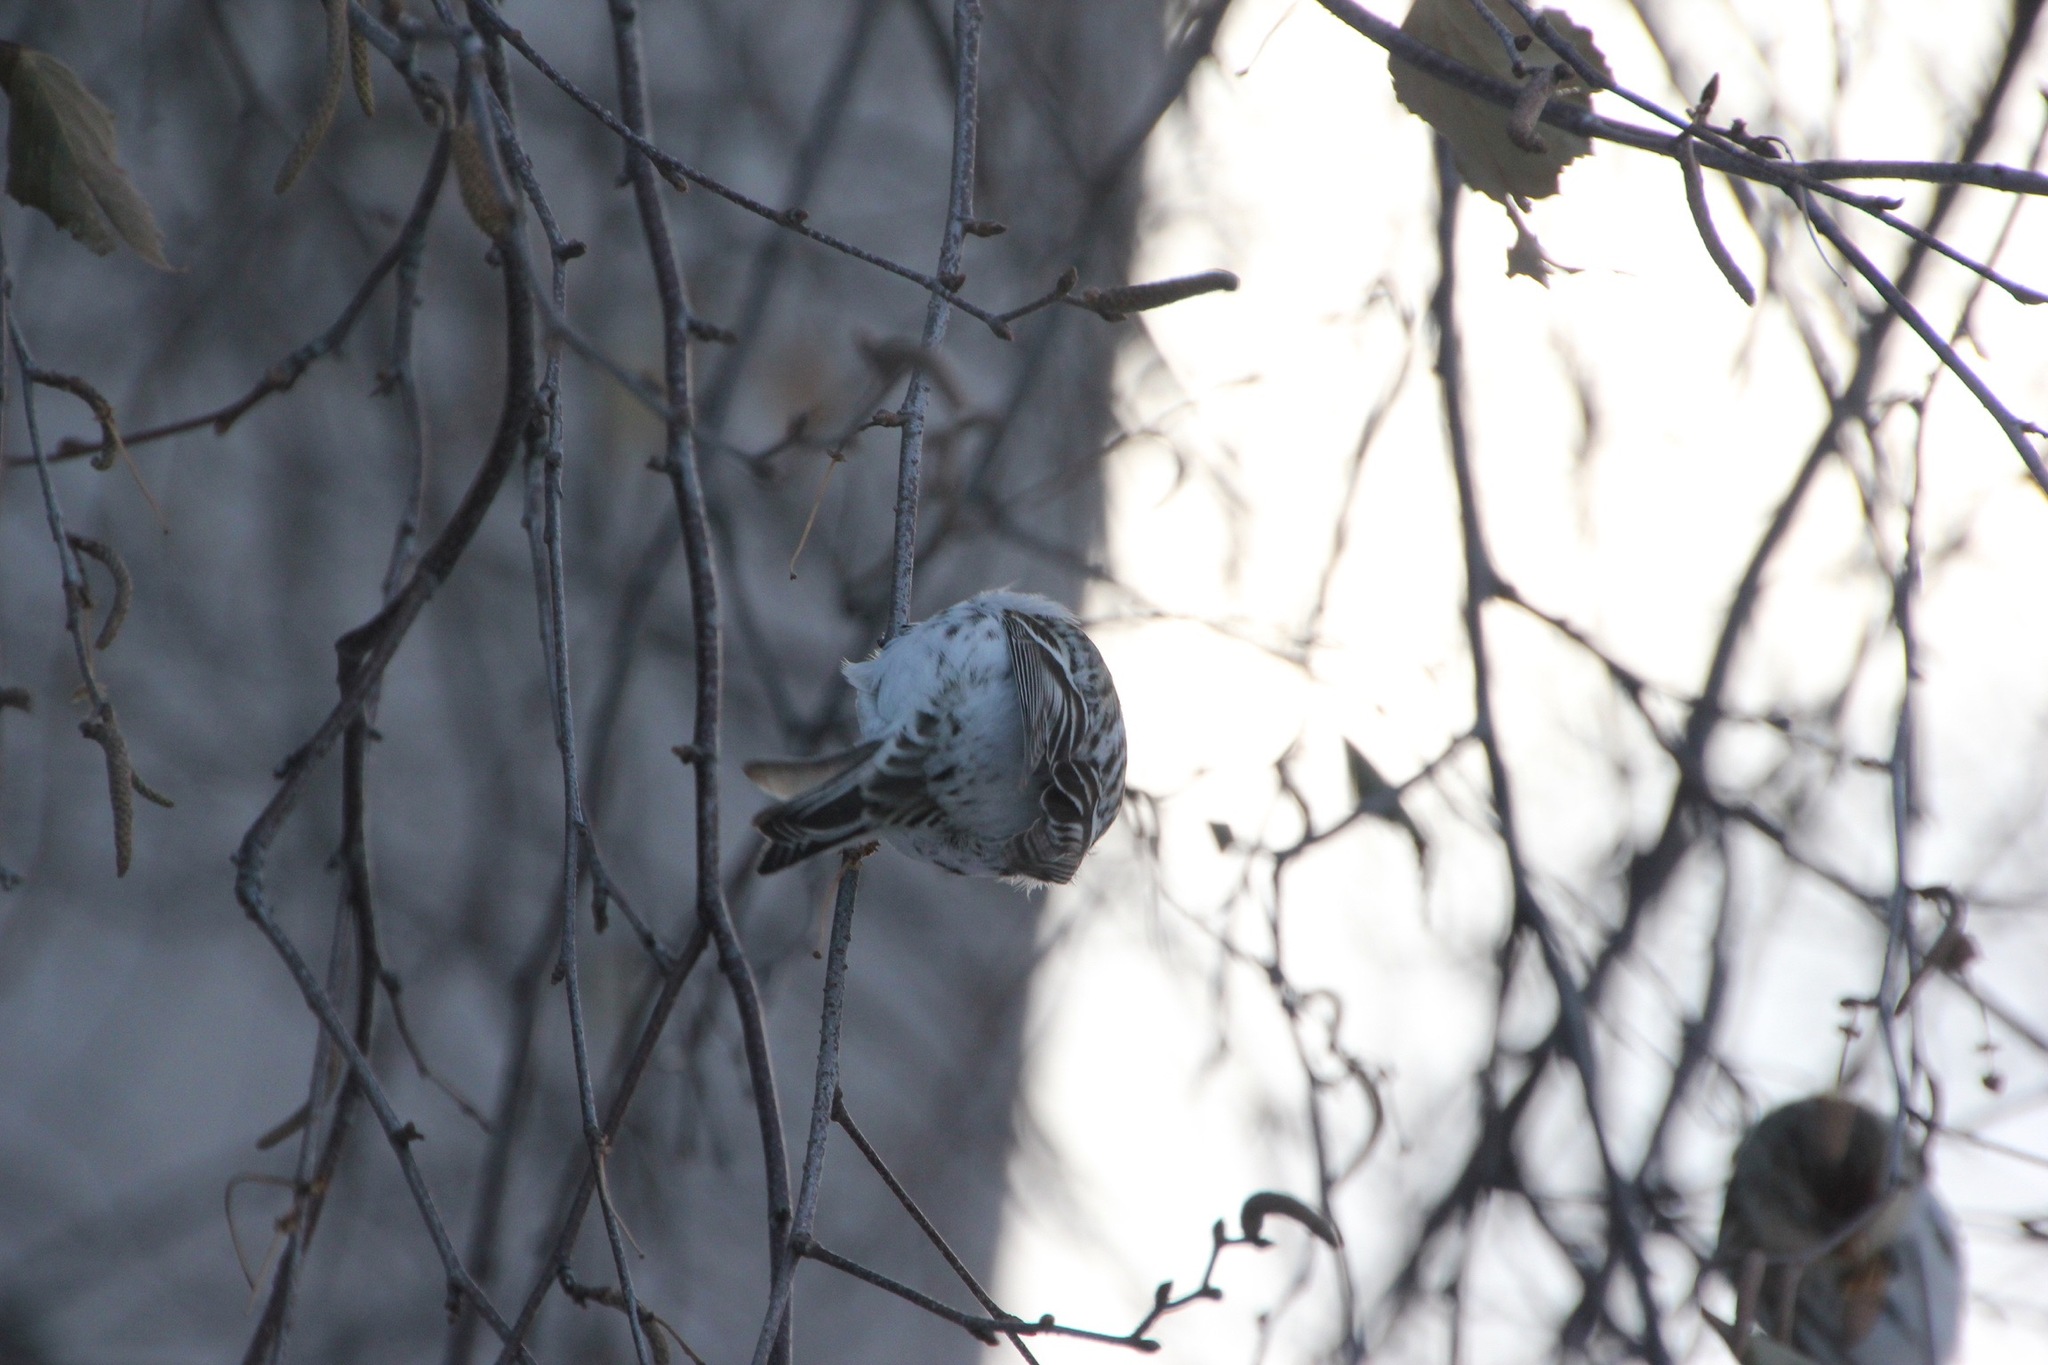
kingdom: Animalia
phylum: Chordata
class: Aves
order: Passeriformes
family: Fringillidae
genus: Acanthis
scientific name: Acanthis hornemanni
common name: Arctic redpoll
